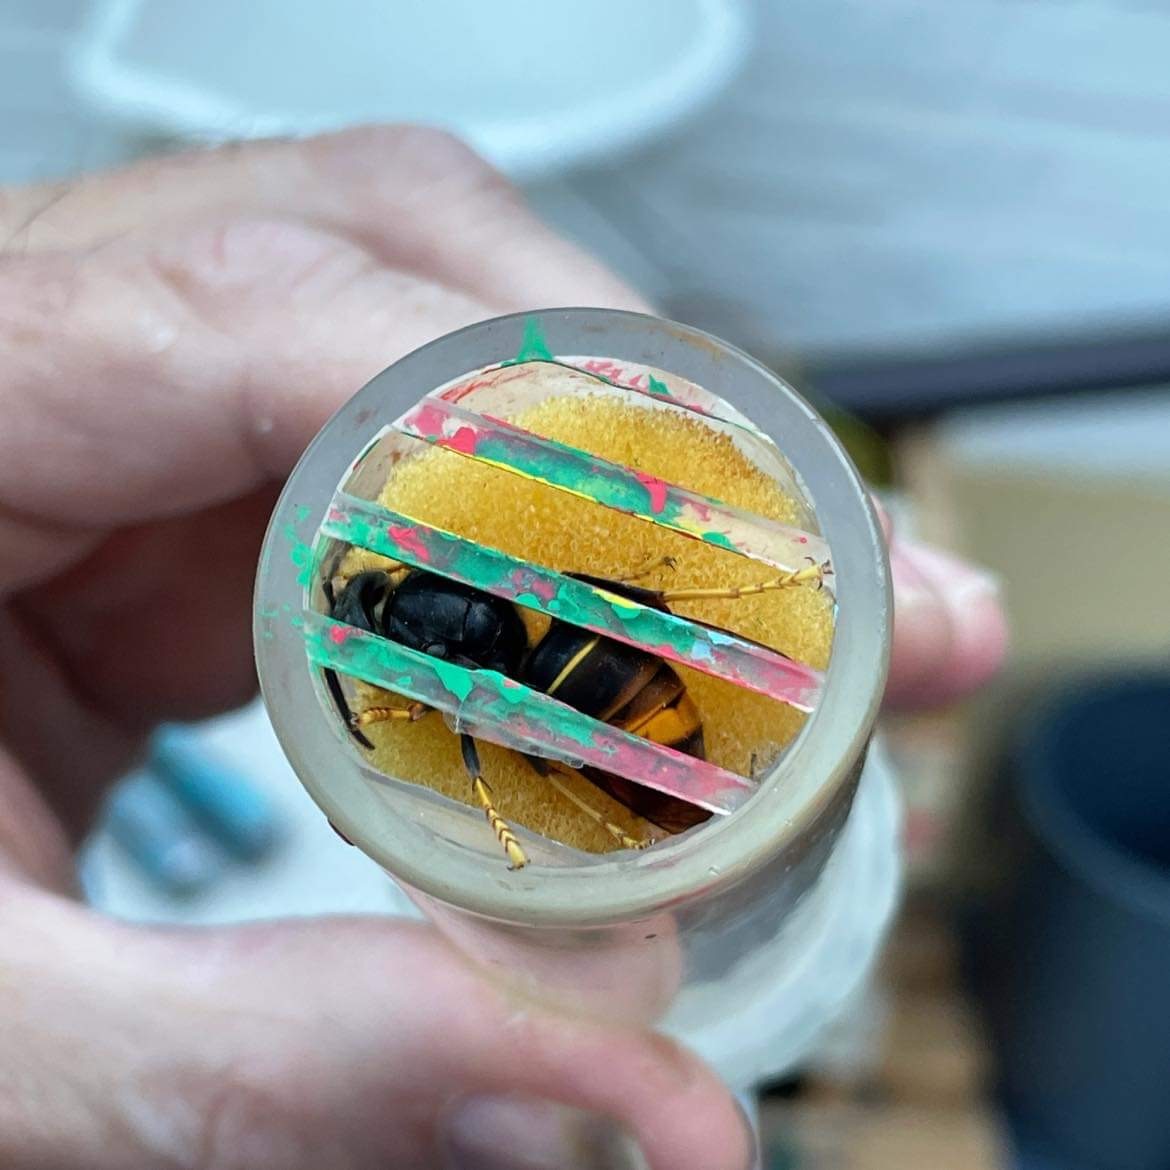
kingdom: Animalia
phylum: Arthropoda
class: Insecta
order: Hymenoptera
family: Vespidae
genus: Vespa
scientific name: Vespa velutina
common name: Asian hornet
